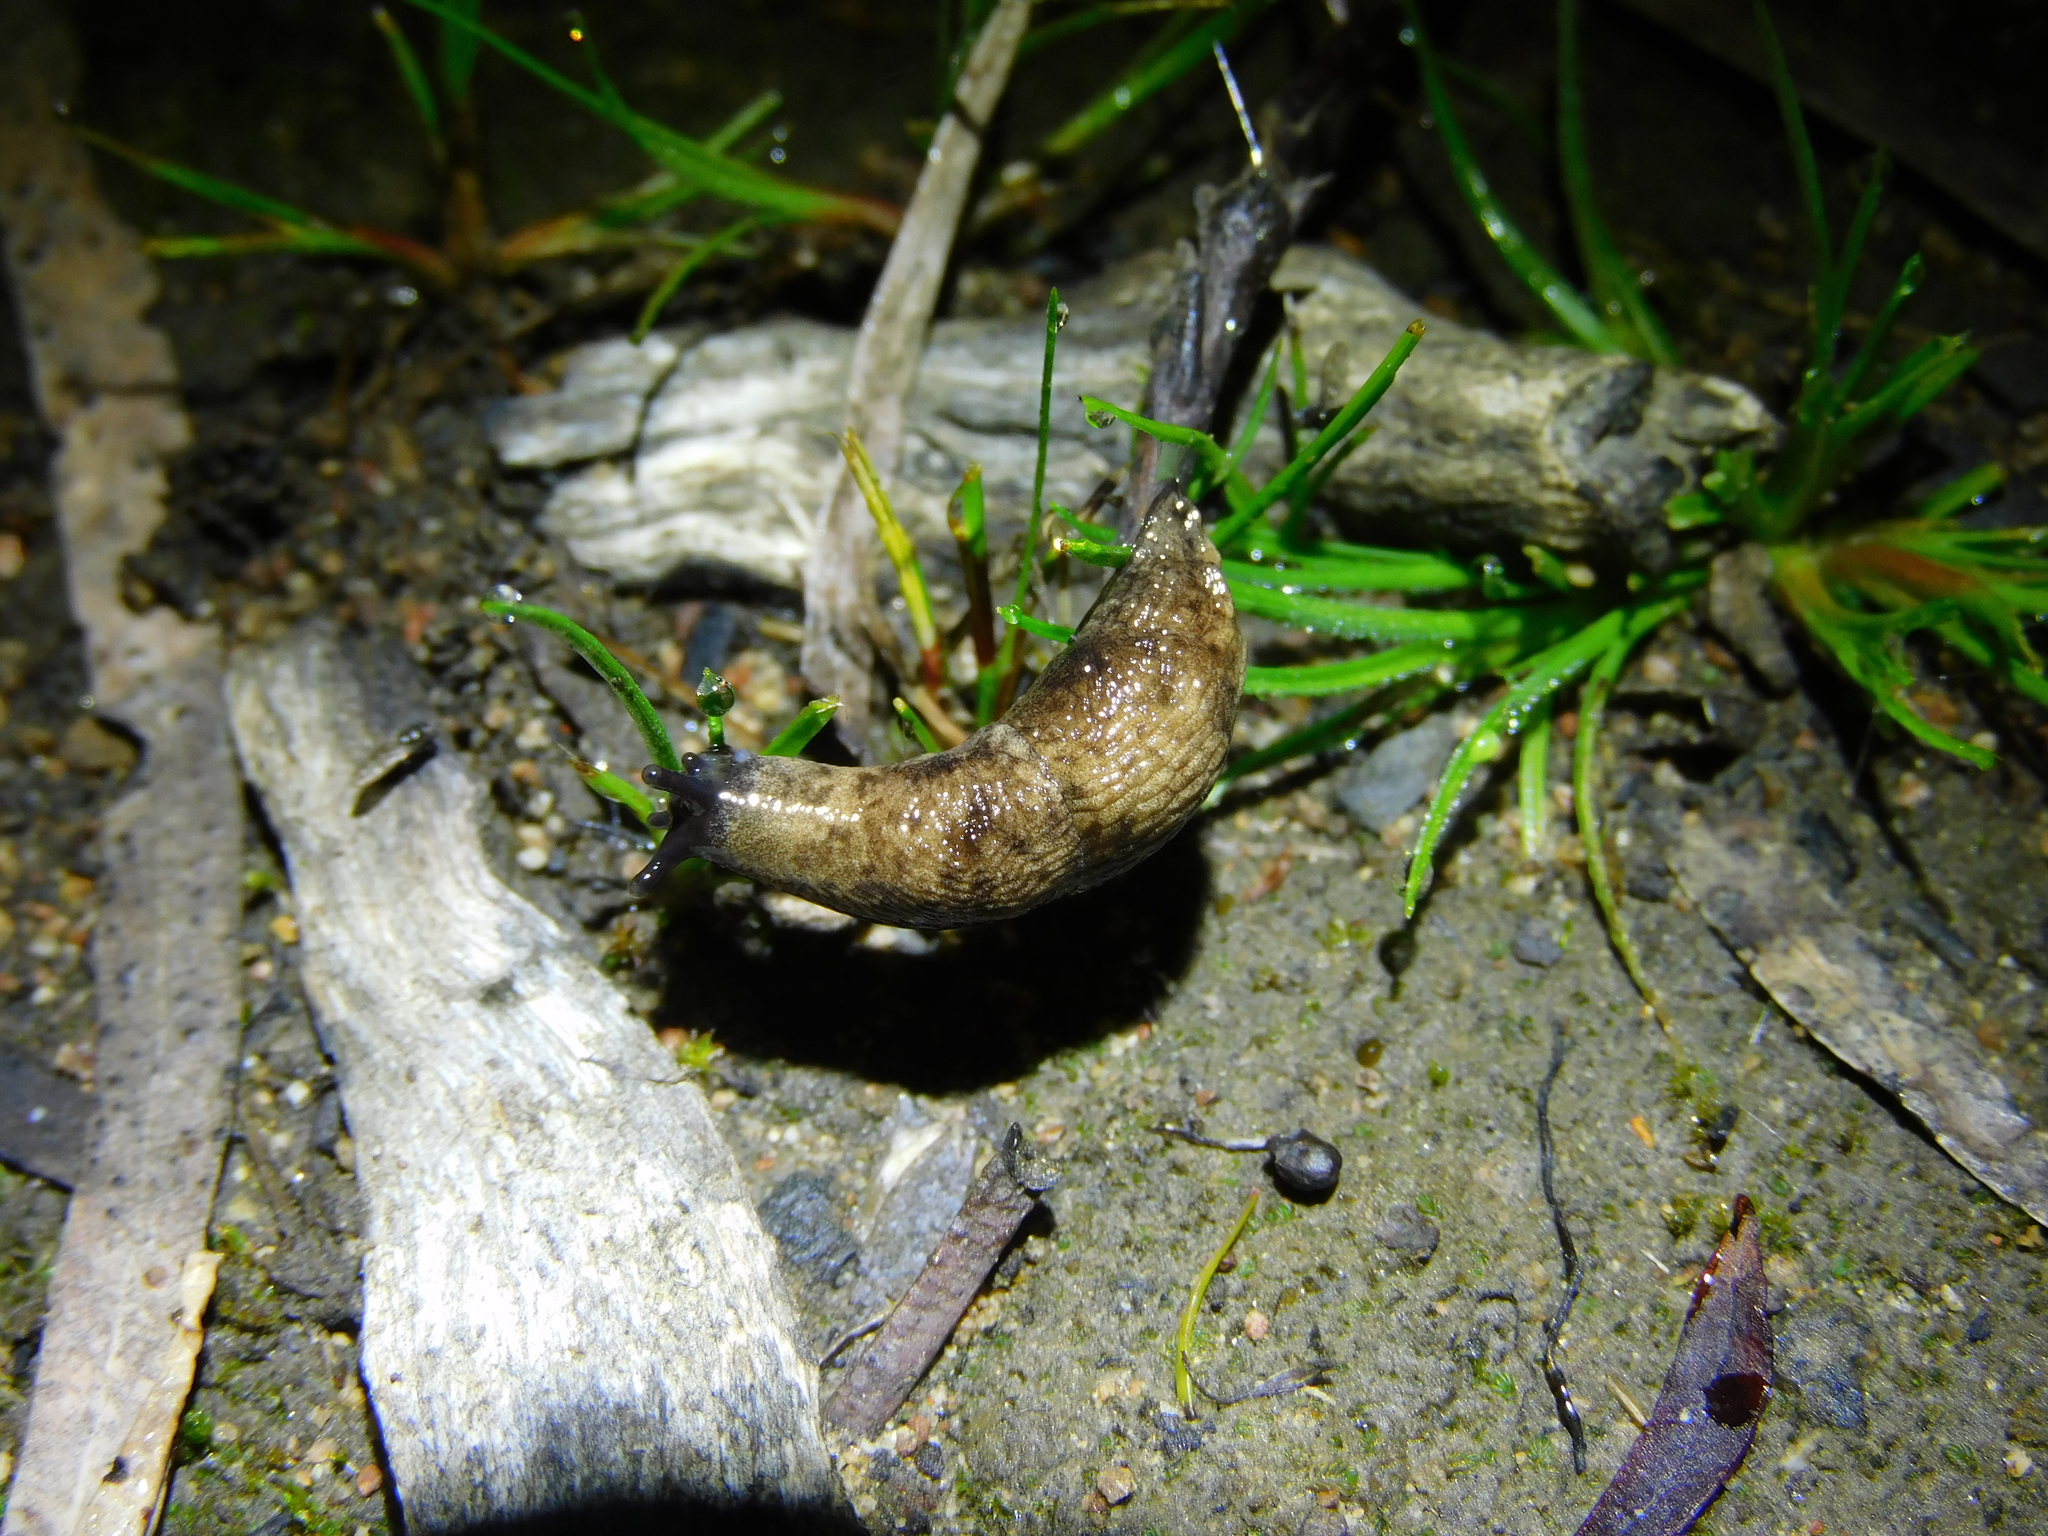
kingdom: Animalia
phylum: Mollusca
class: Gastropoda
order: Stylommatophora
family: Agriolimacidae
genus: Deroceras
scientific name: Deroceras reticulatum
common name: Gray field slug
